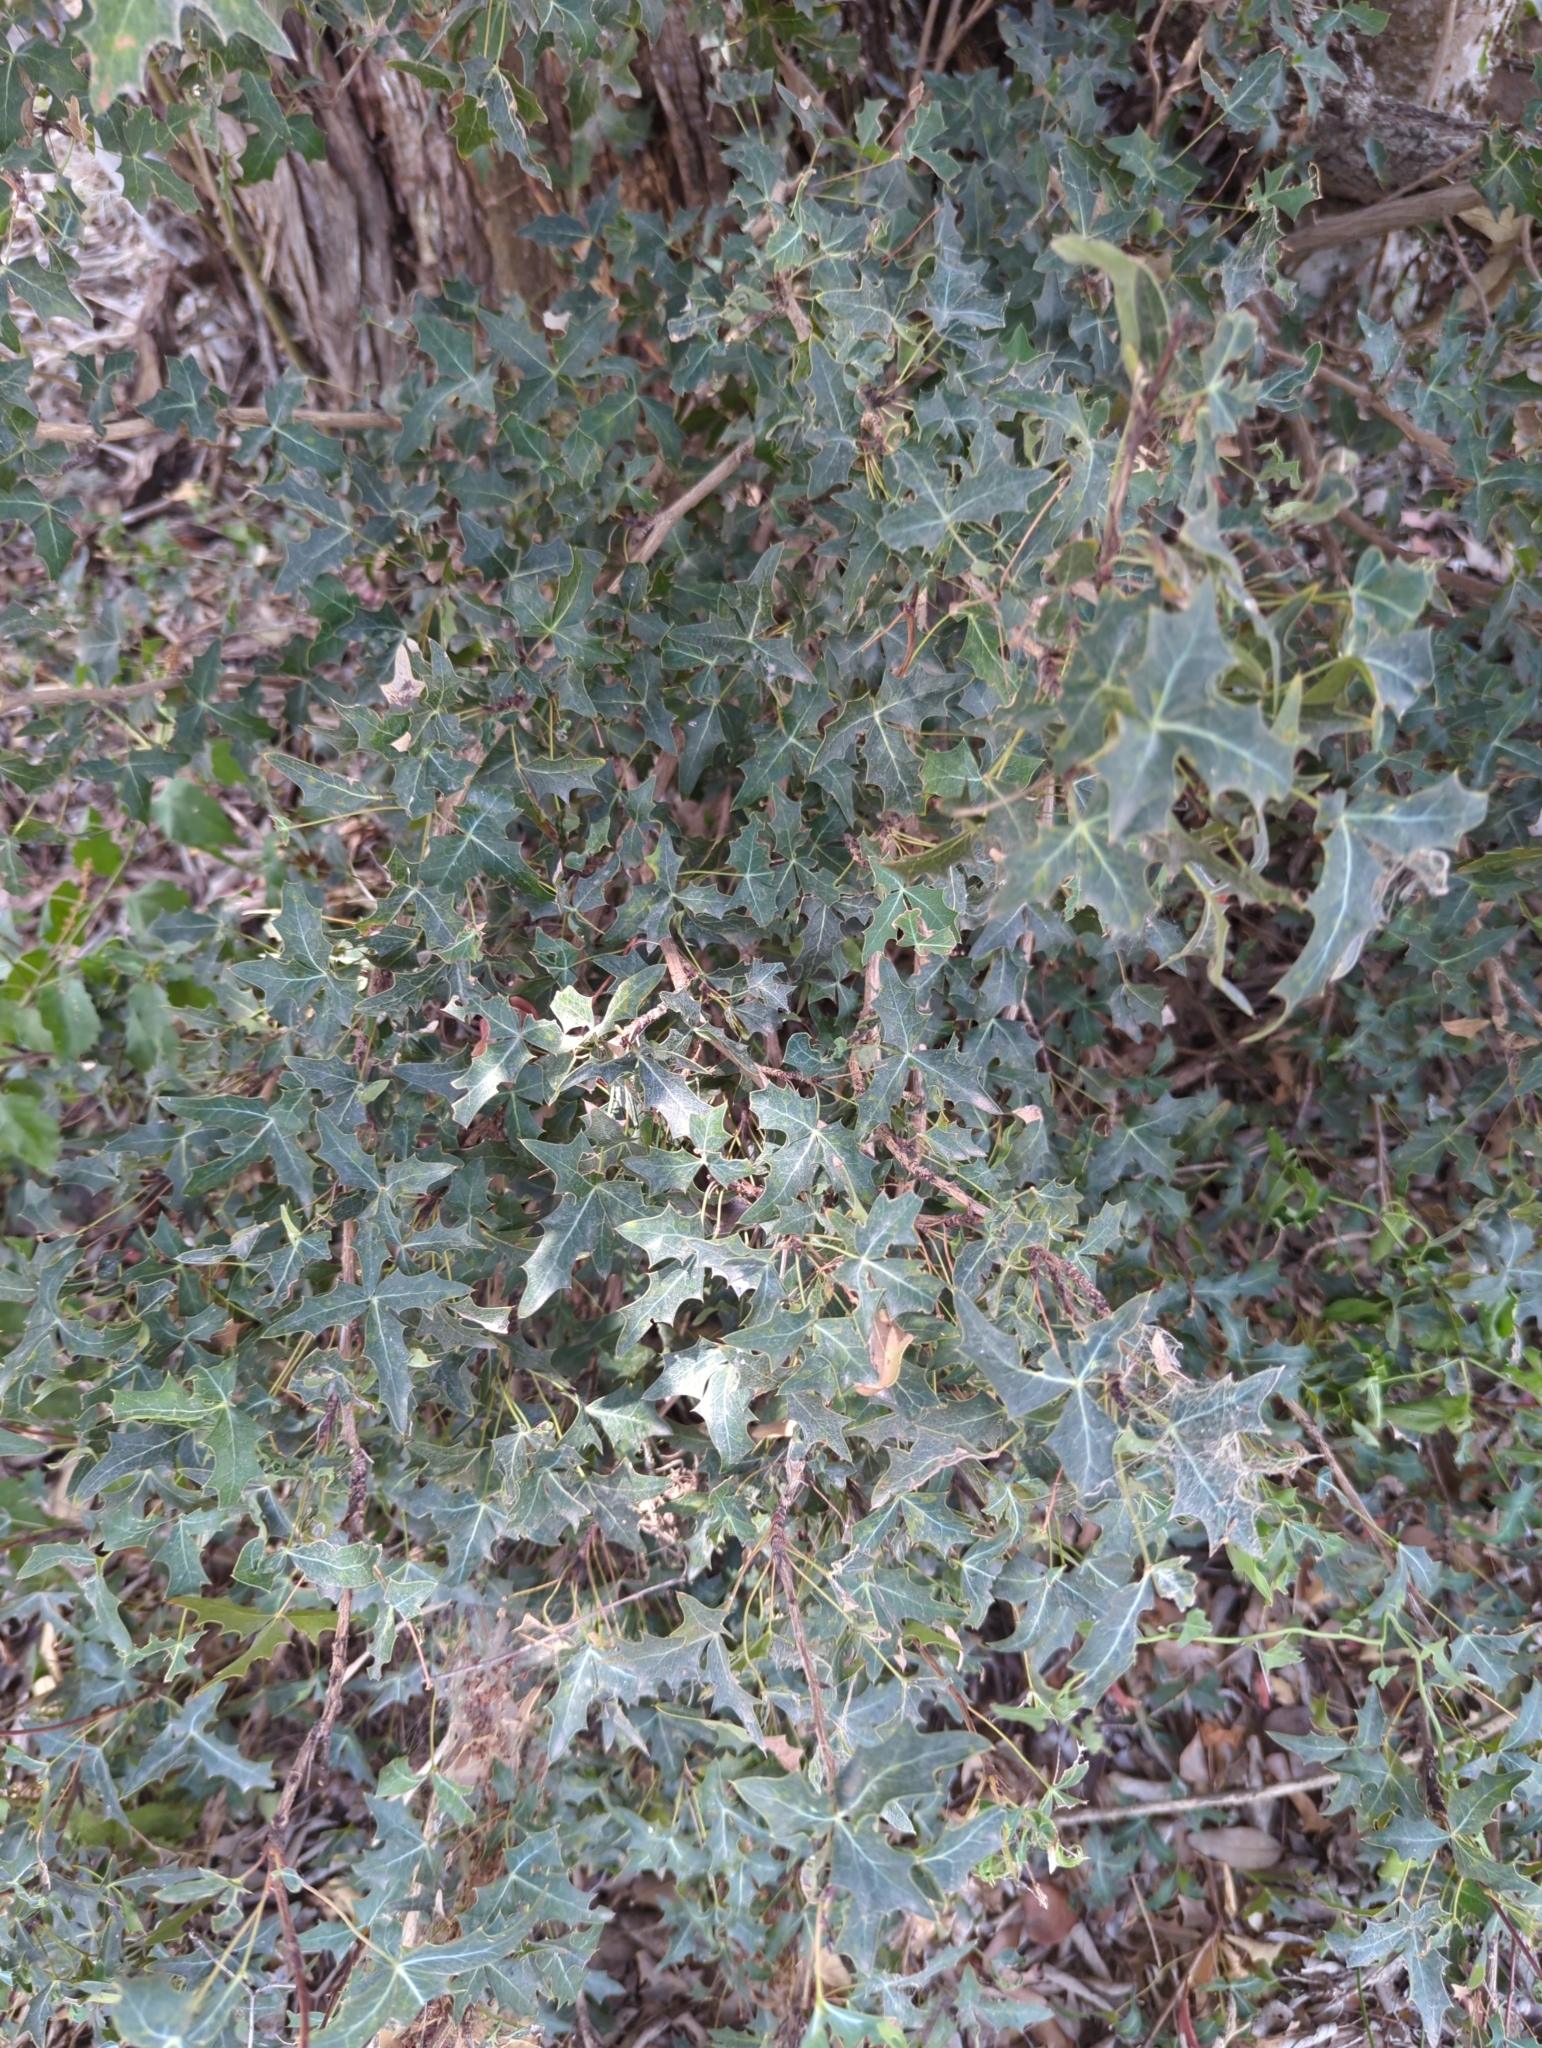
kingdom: Plantae
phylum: Tracheophyta
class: Magnoliopsida
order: Ranunculales
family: Berberidaceae
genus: Alloberberis
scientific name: Alloberberis trifoliolata
